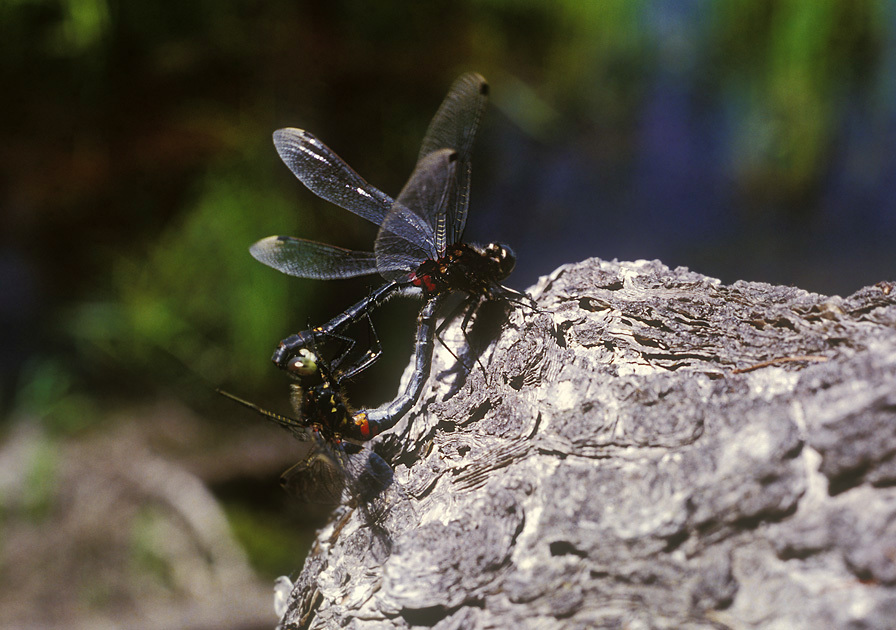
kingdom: Animalia
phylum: Arthropoda
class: Insecta
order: Odonata
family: Libellulidae
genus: Leucorrhinia
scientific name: Leucorrhinia orientalis
